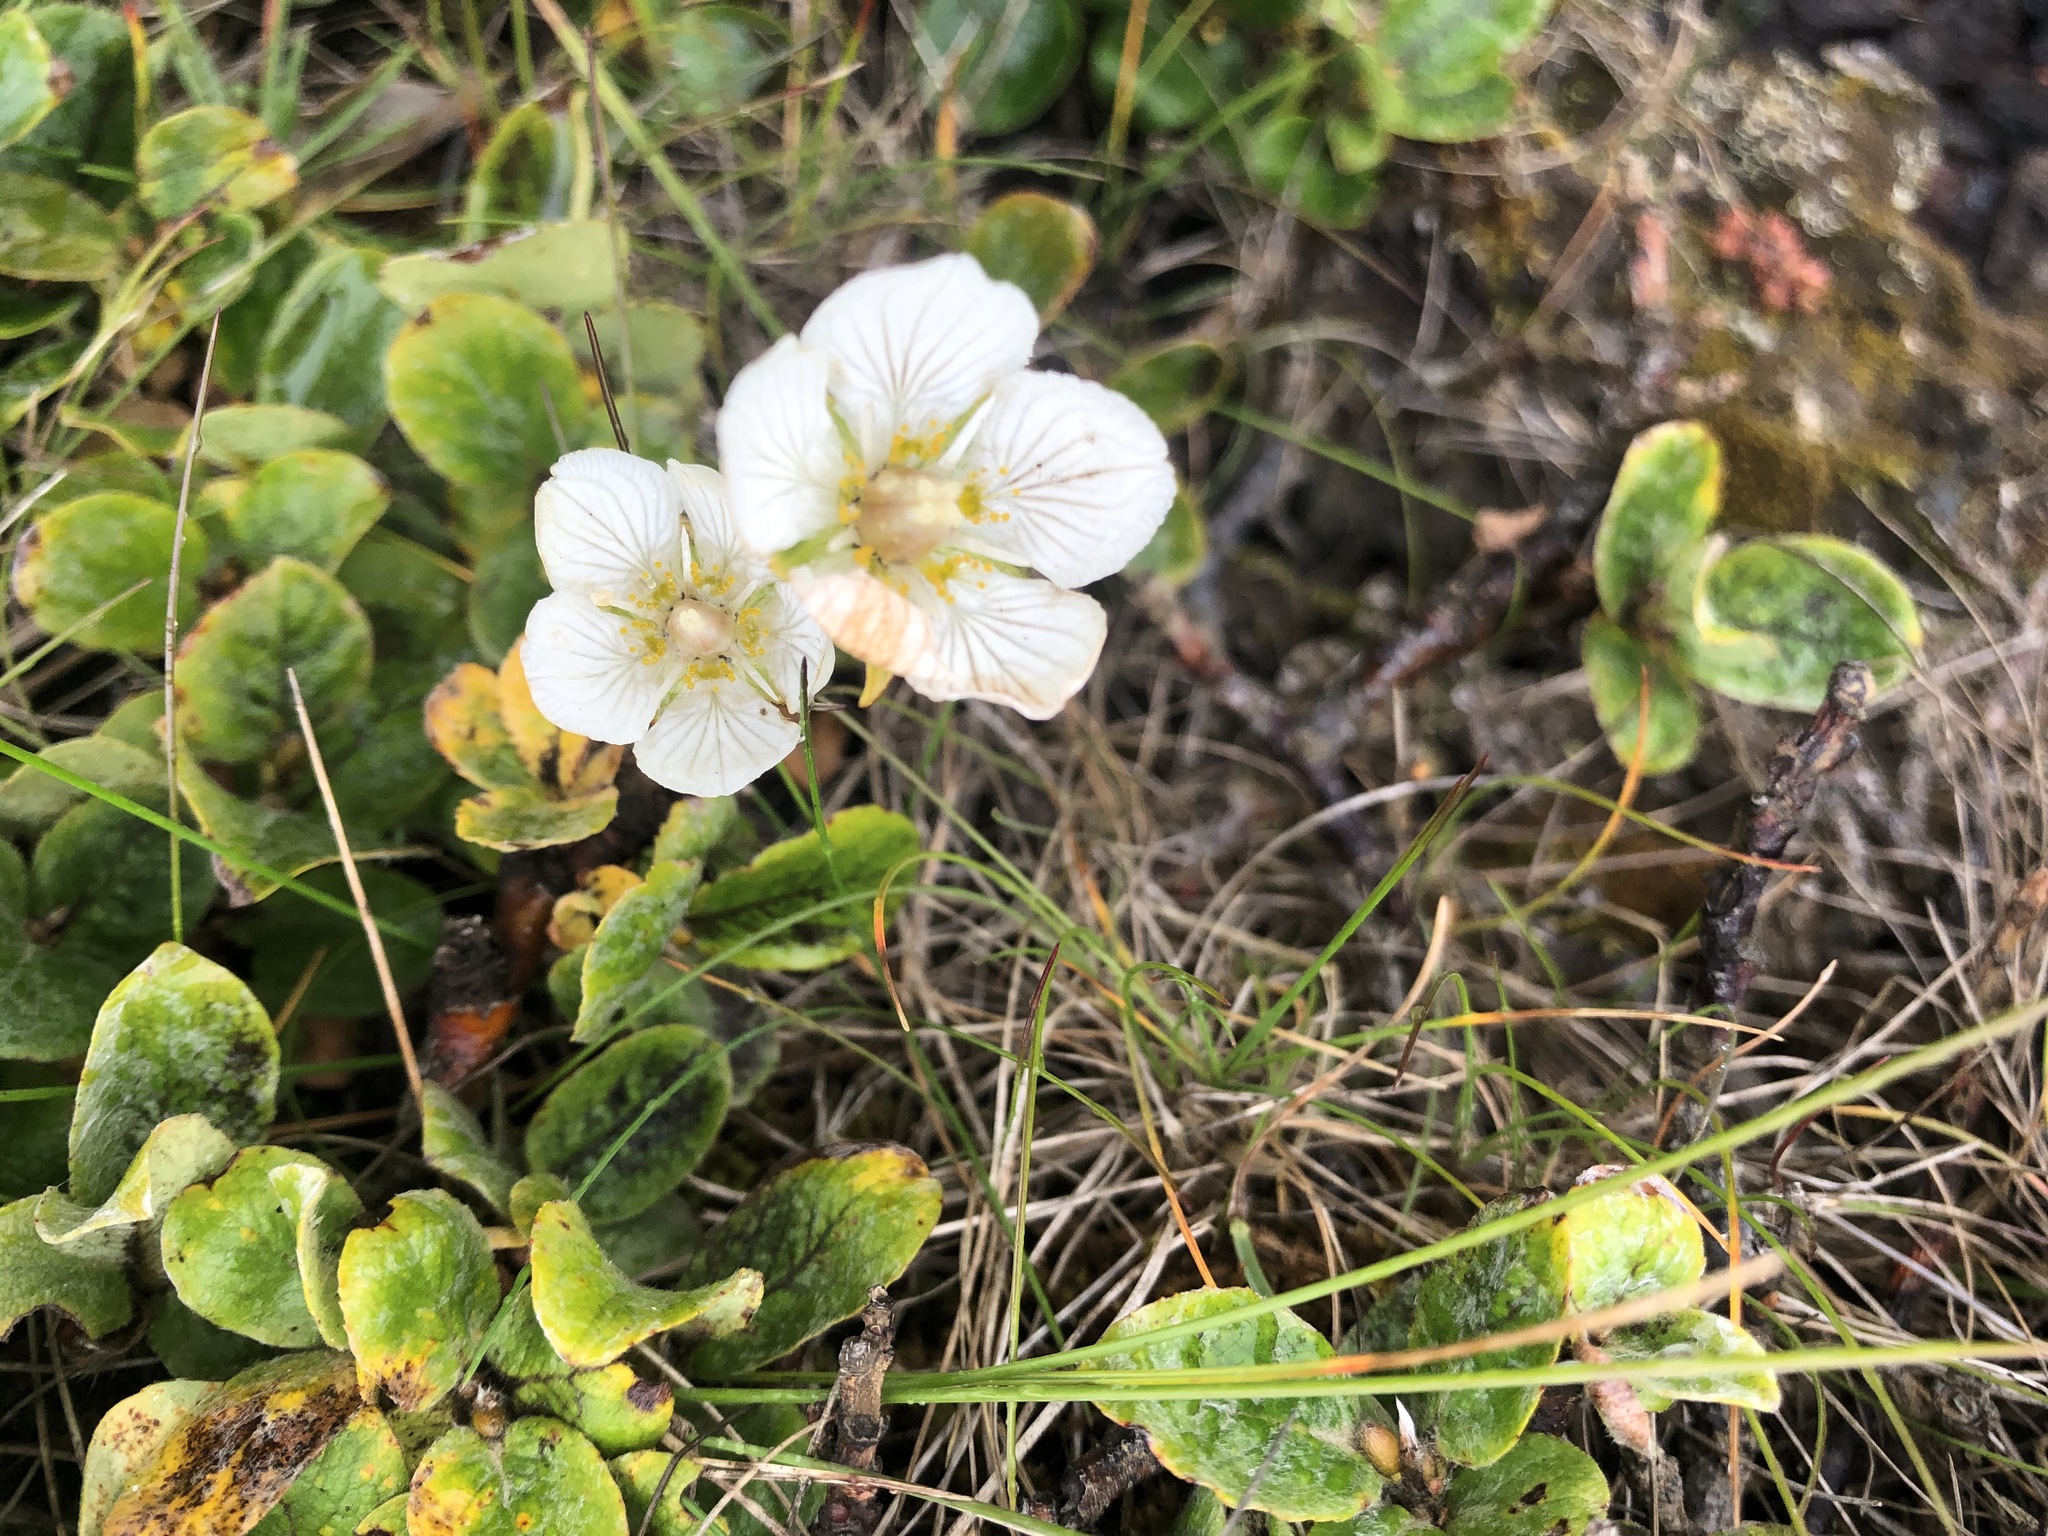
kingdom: Plantae
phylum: Tracheophyta
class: Magnoliopsida
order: Celastrales
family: Parnassiaceae
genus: Parnassia
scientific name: Parnassia palustris
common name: Grass-of-parnassus
